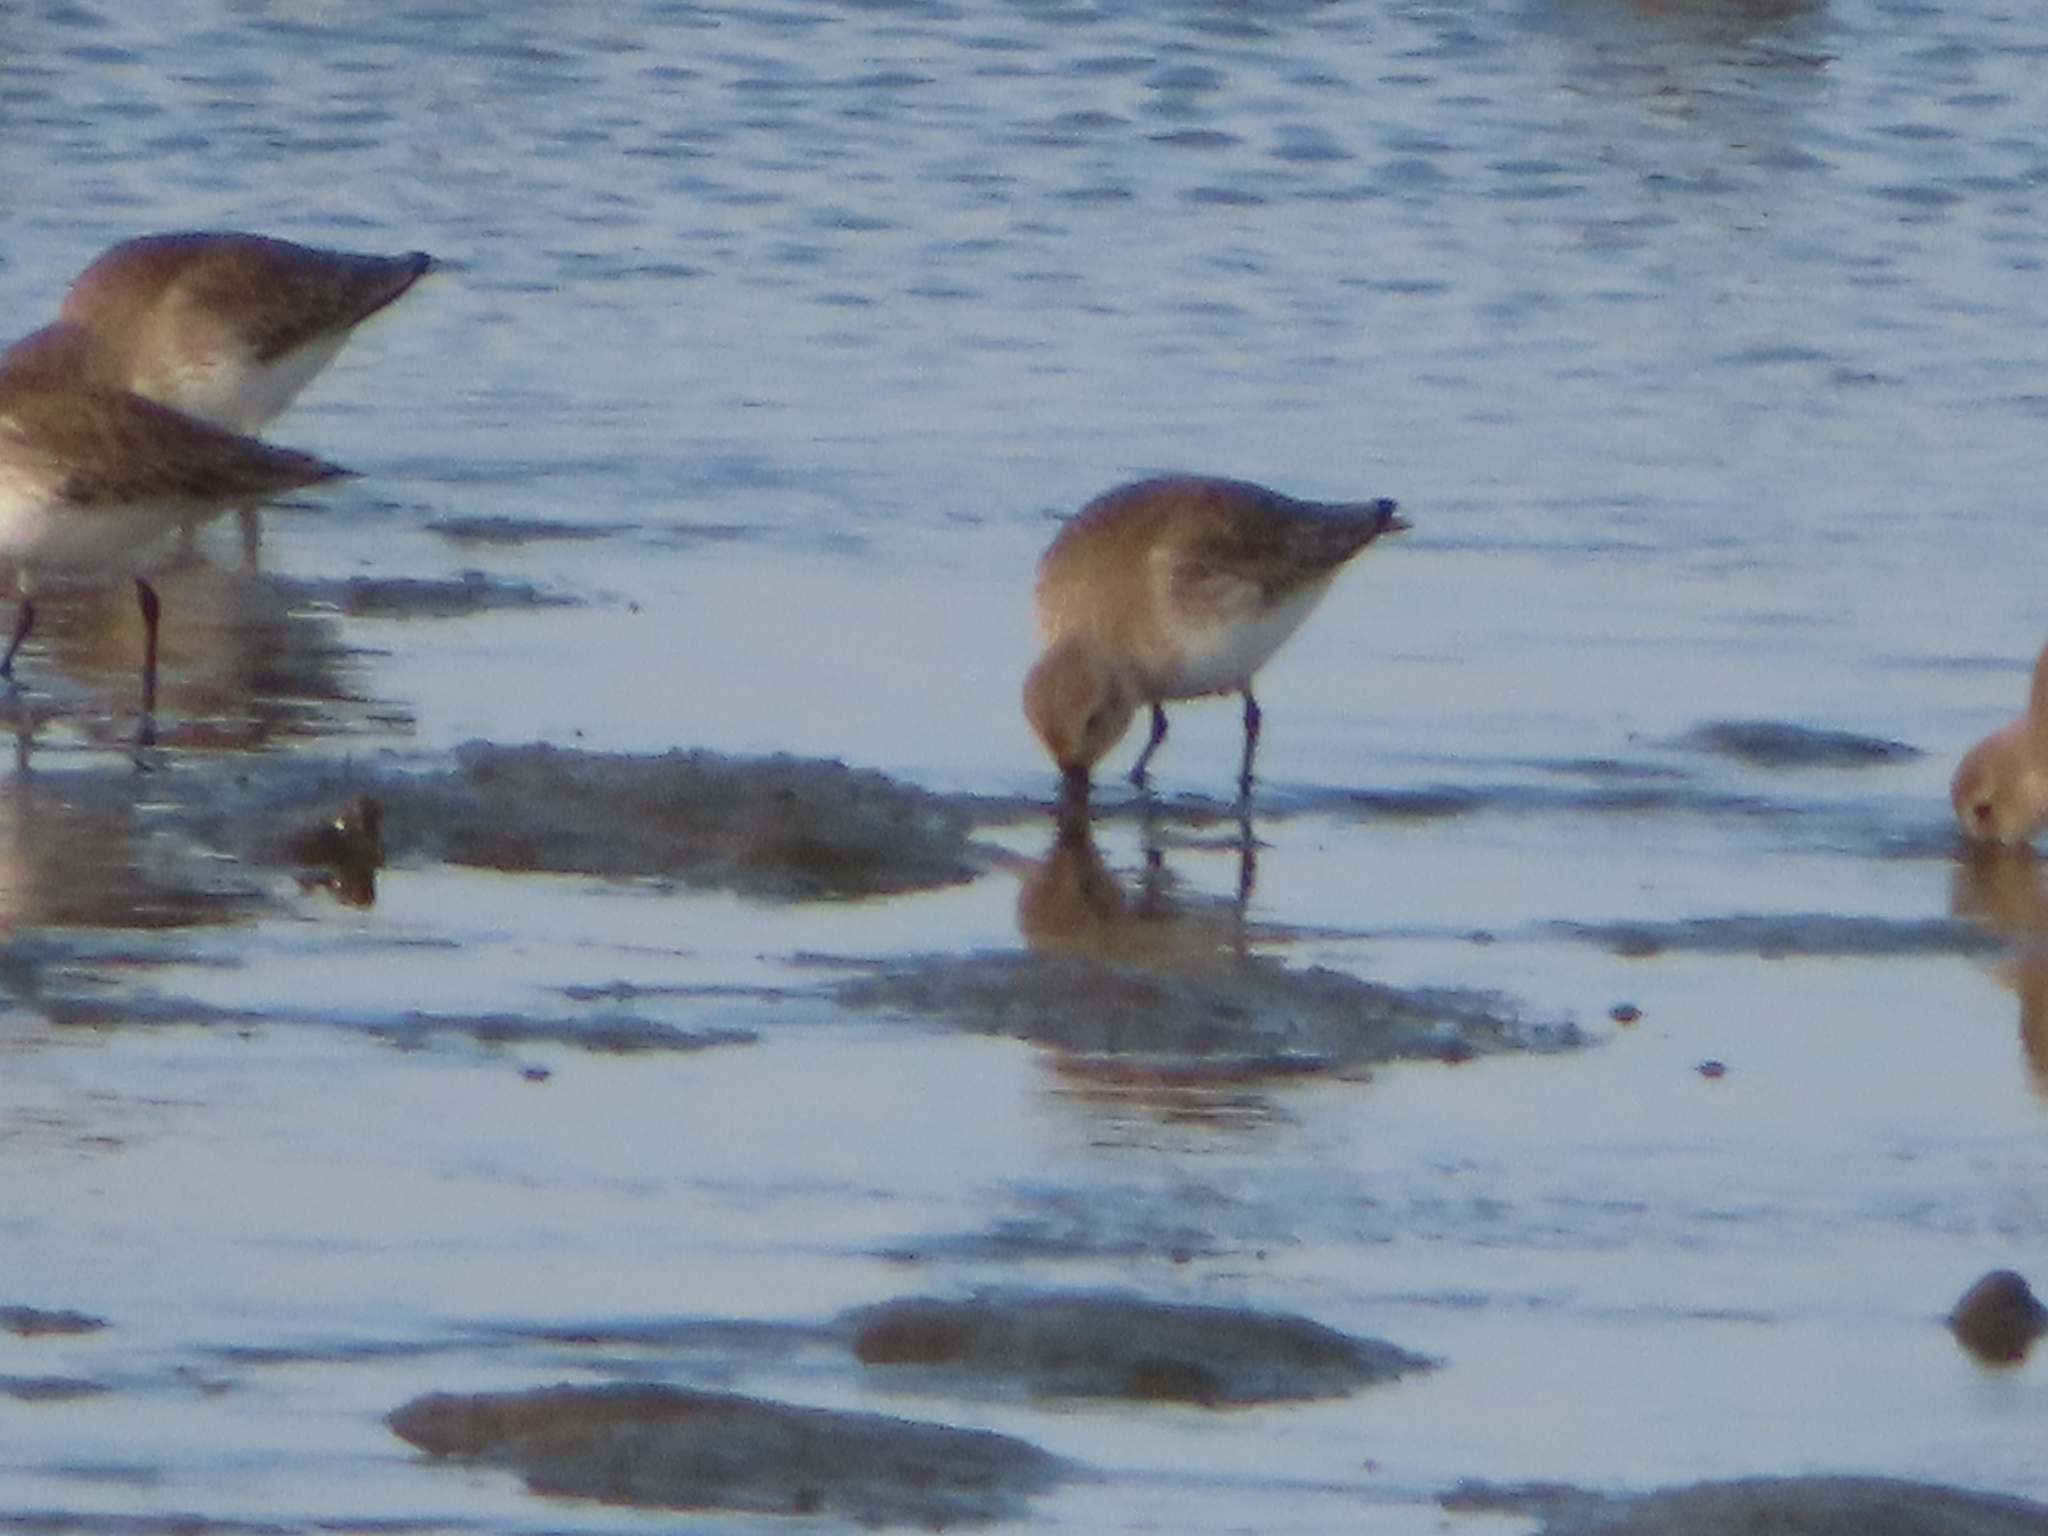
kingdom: Animalia
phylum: Chordata
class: Aves
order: Charadriiformes
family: Scolopacidae
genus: Calidris
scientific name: Calidris alpina
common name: Dunlin
